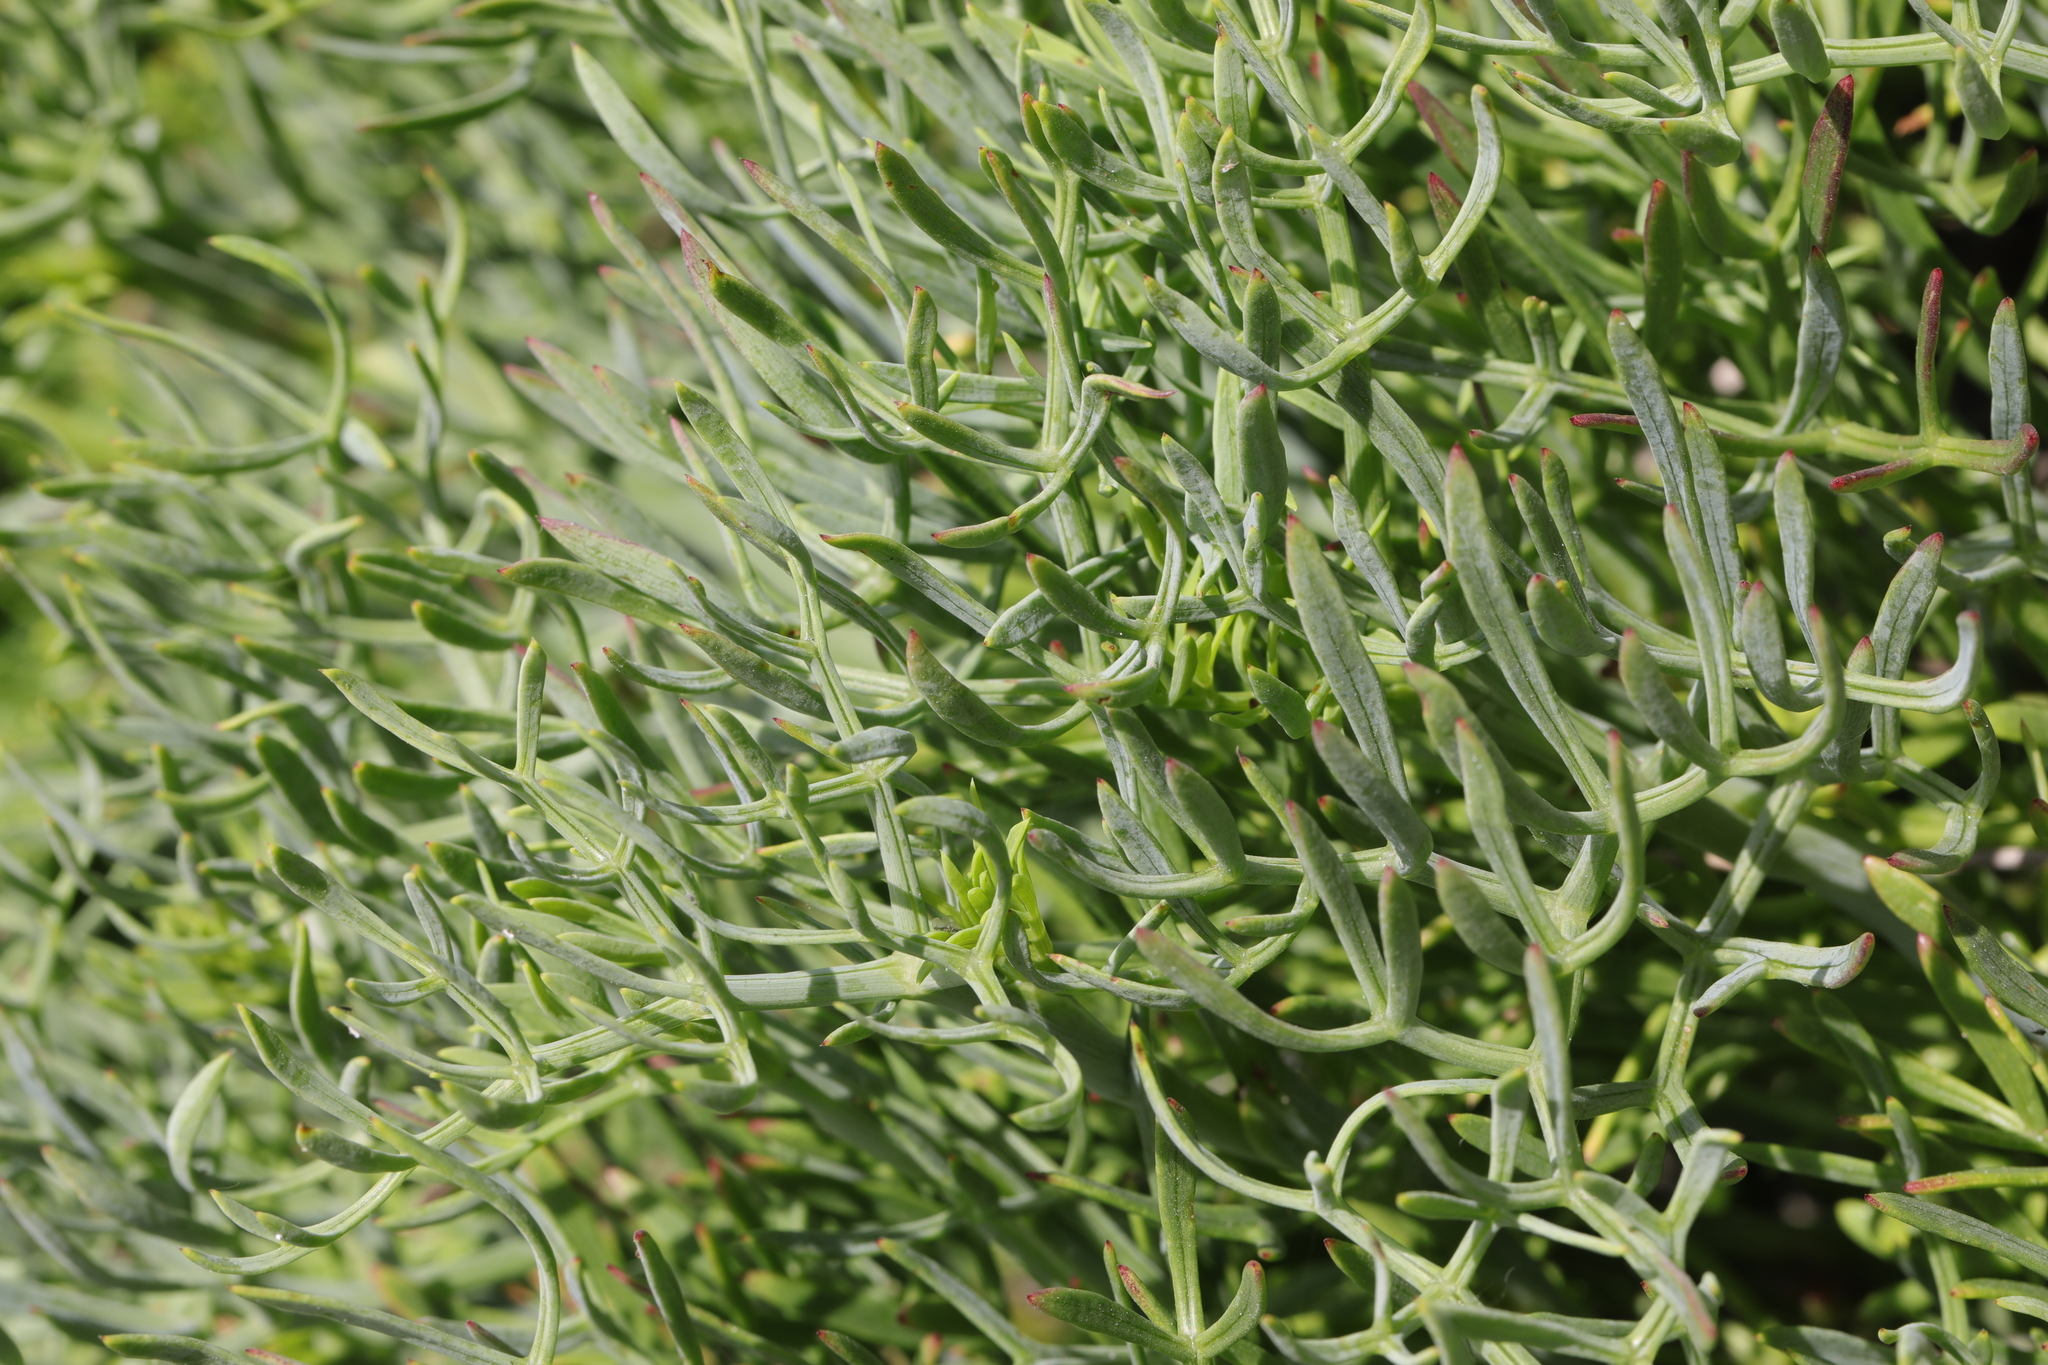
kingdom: Plantae
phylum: Tracheophyta
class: Magnoliopsida
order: Apiales
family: Apiaceae
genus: Crithmum
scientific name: Crithmum maritimum
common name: Rock samphire
